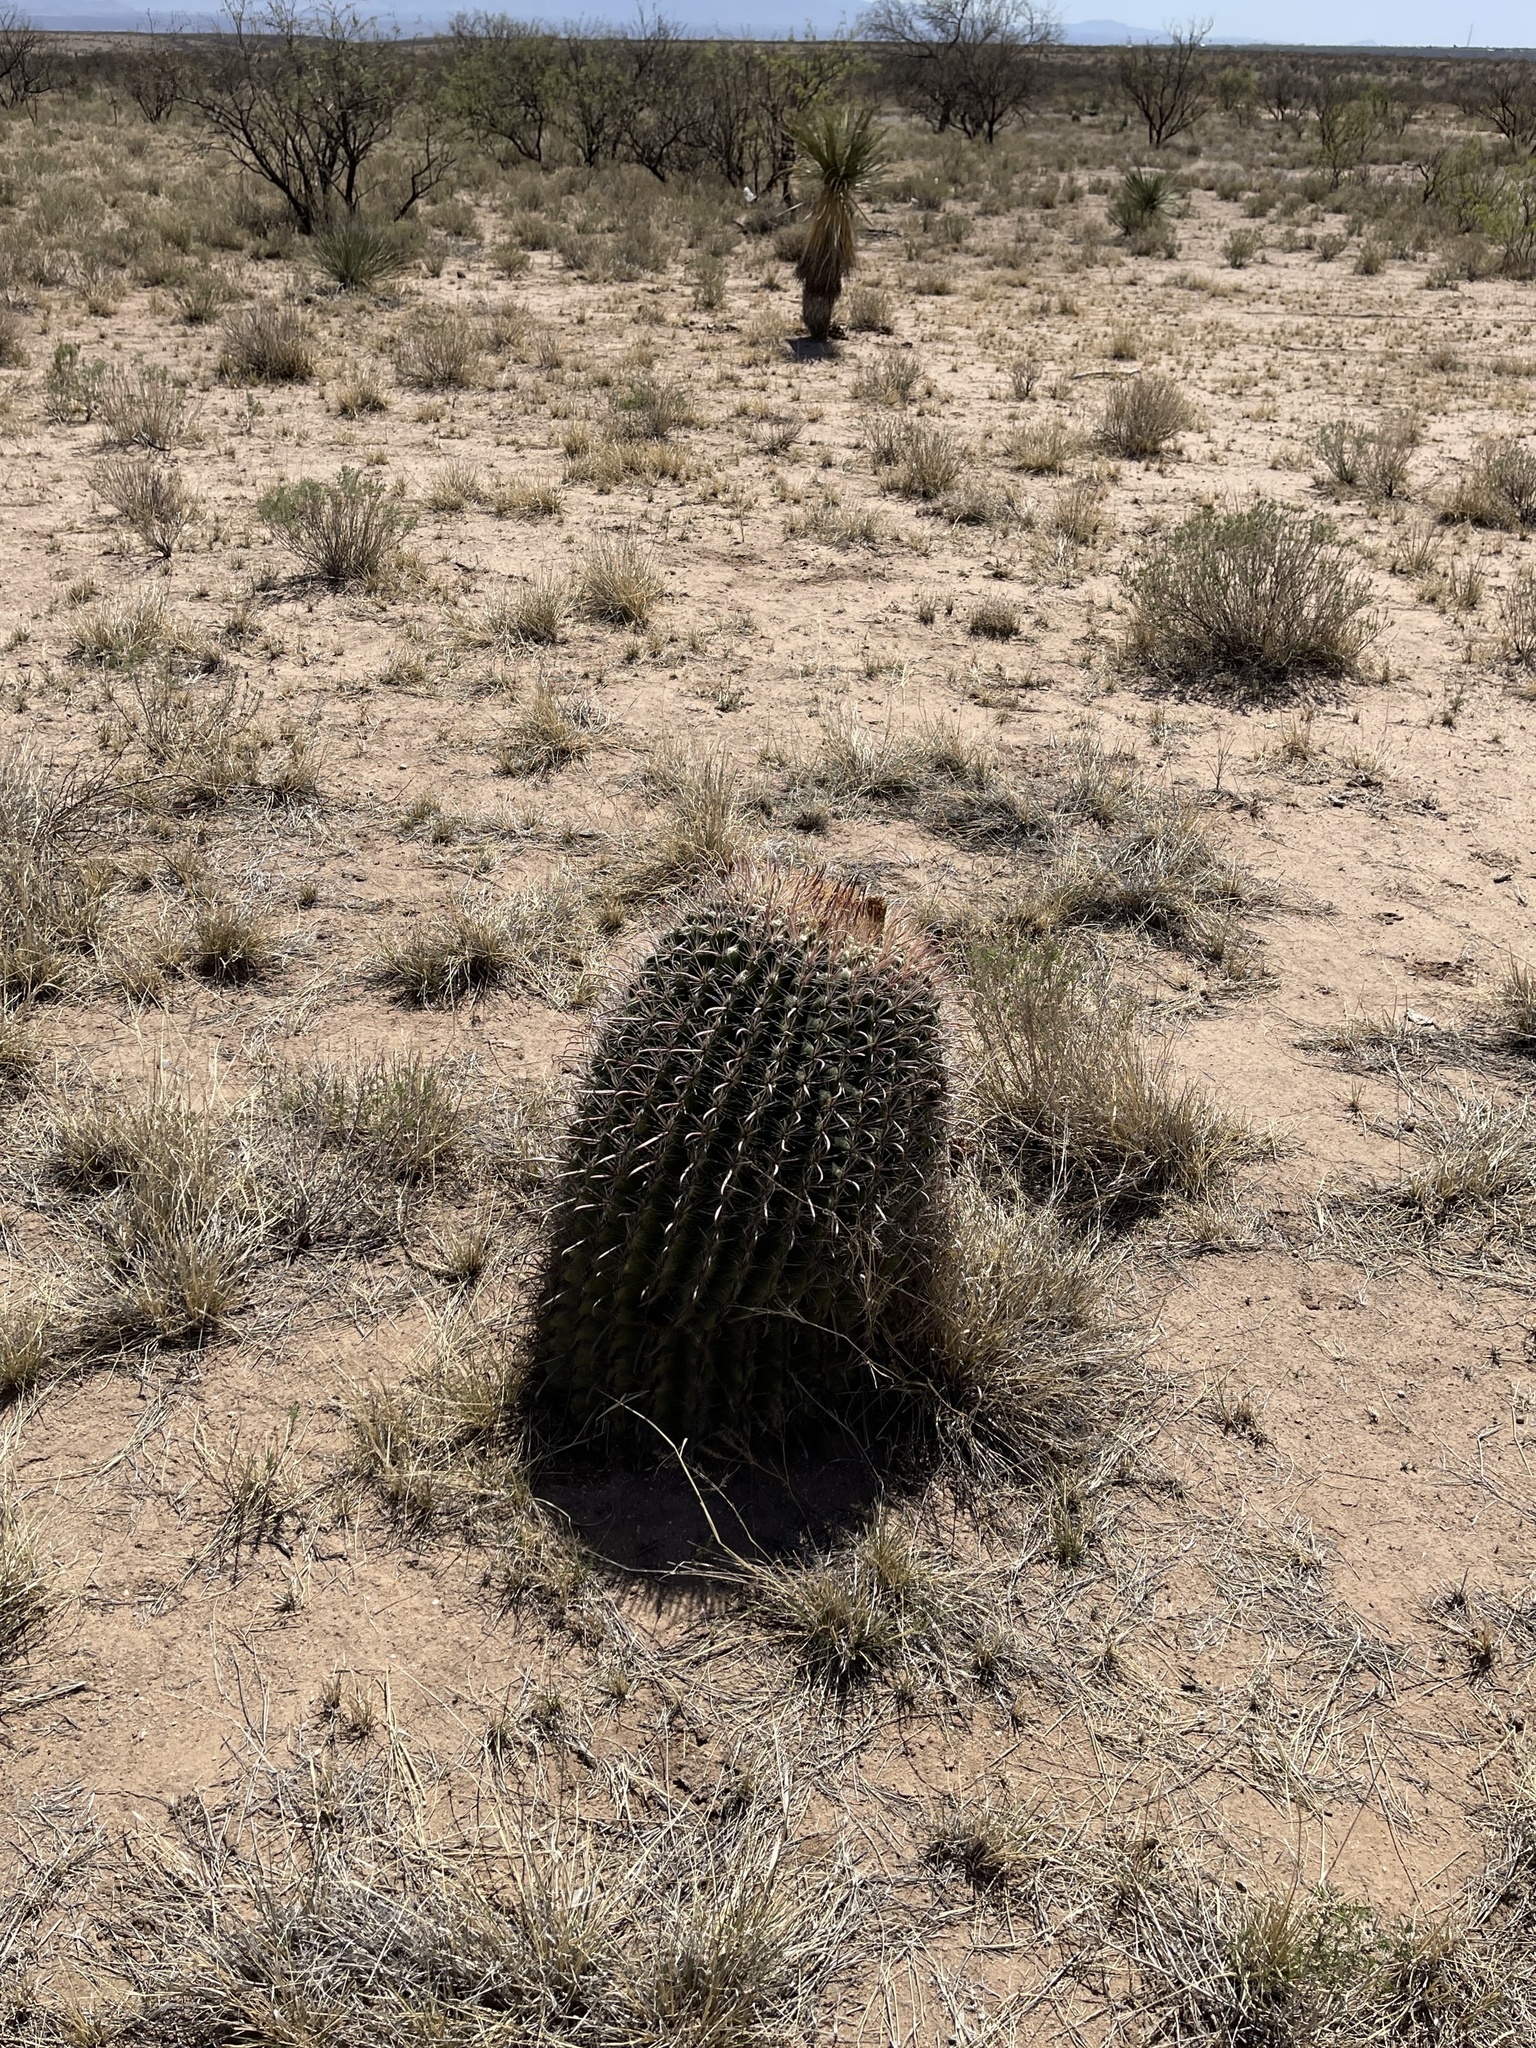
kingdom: Plantae
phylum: Tracheophyta
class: Magnoliopsida
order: Caryophyllales
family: Cactaceae
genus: Ferocactus
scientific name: Ferocactus wislizeni
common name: Candy barrel cactus
